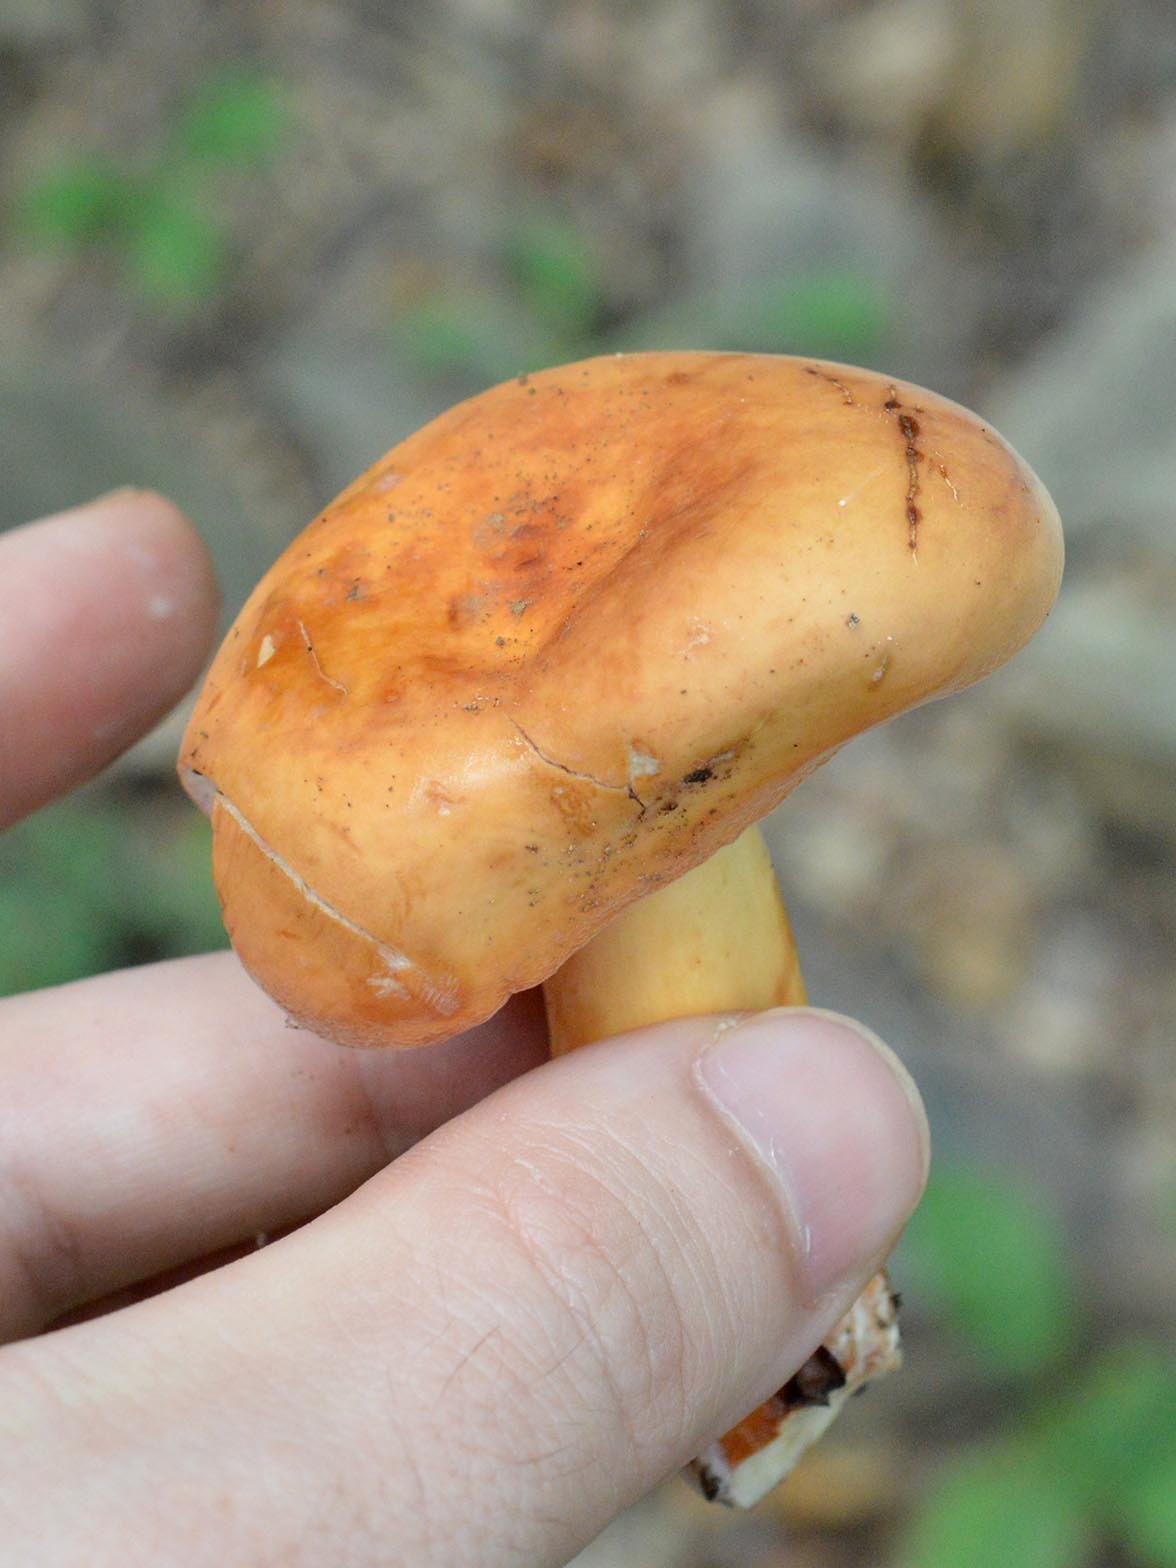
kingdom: Fungi
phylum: Basidiomycota
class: Agaricomycetes
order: Russulales
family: Russulaceae
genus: Lactifluus
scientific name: Lactifluus volemus
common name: Fishy milkcap
